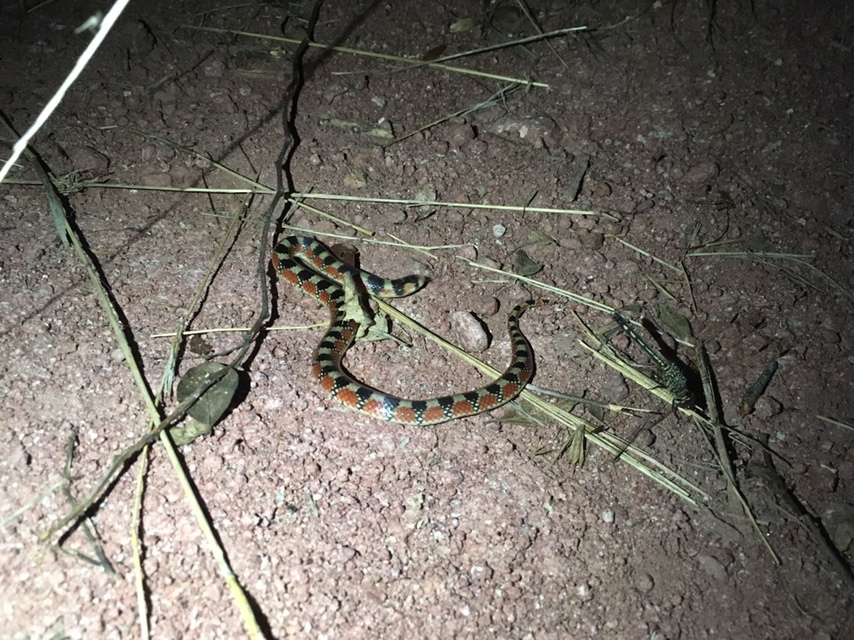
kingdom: Animalia
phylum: Chordata
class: Squamata
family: Colubridae
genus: Gyalopion
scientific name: Gyalopion quadrangulare
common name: Thornscrub or desert hooknose snake
